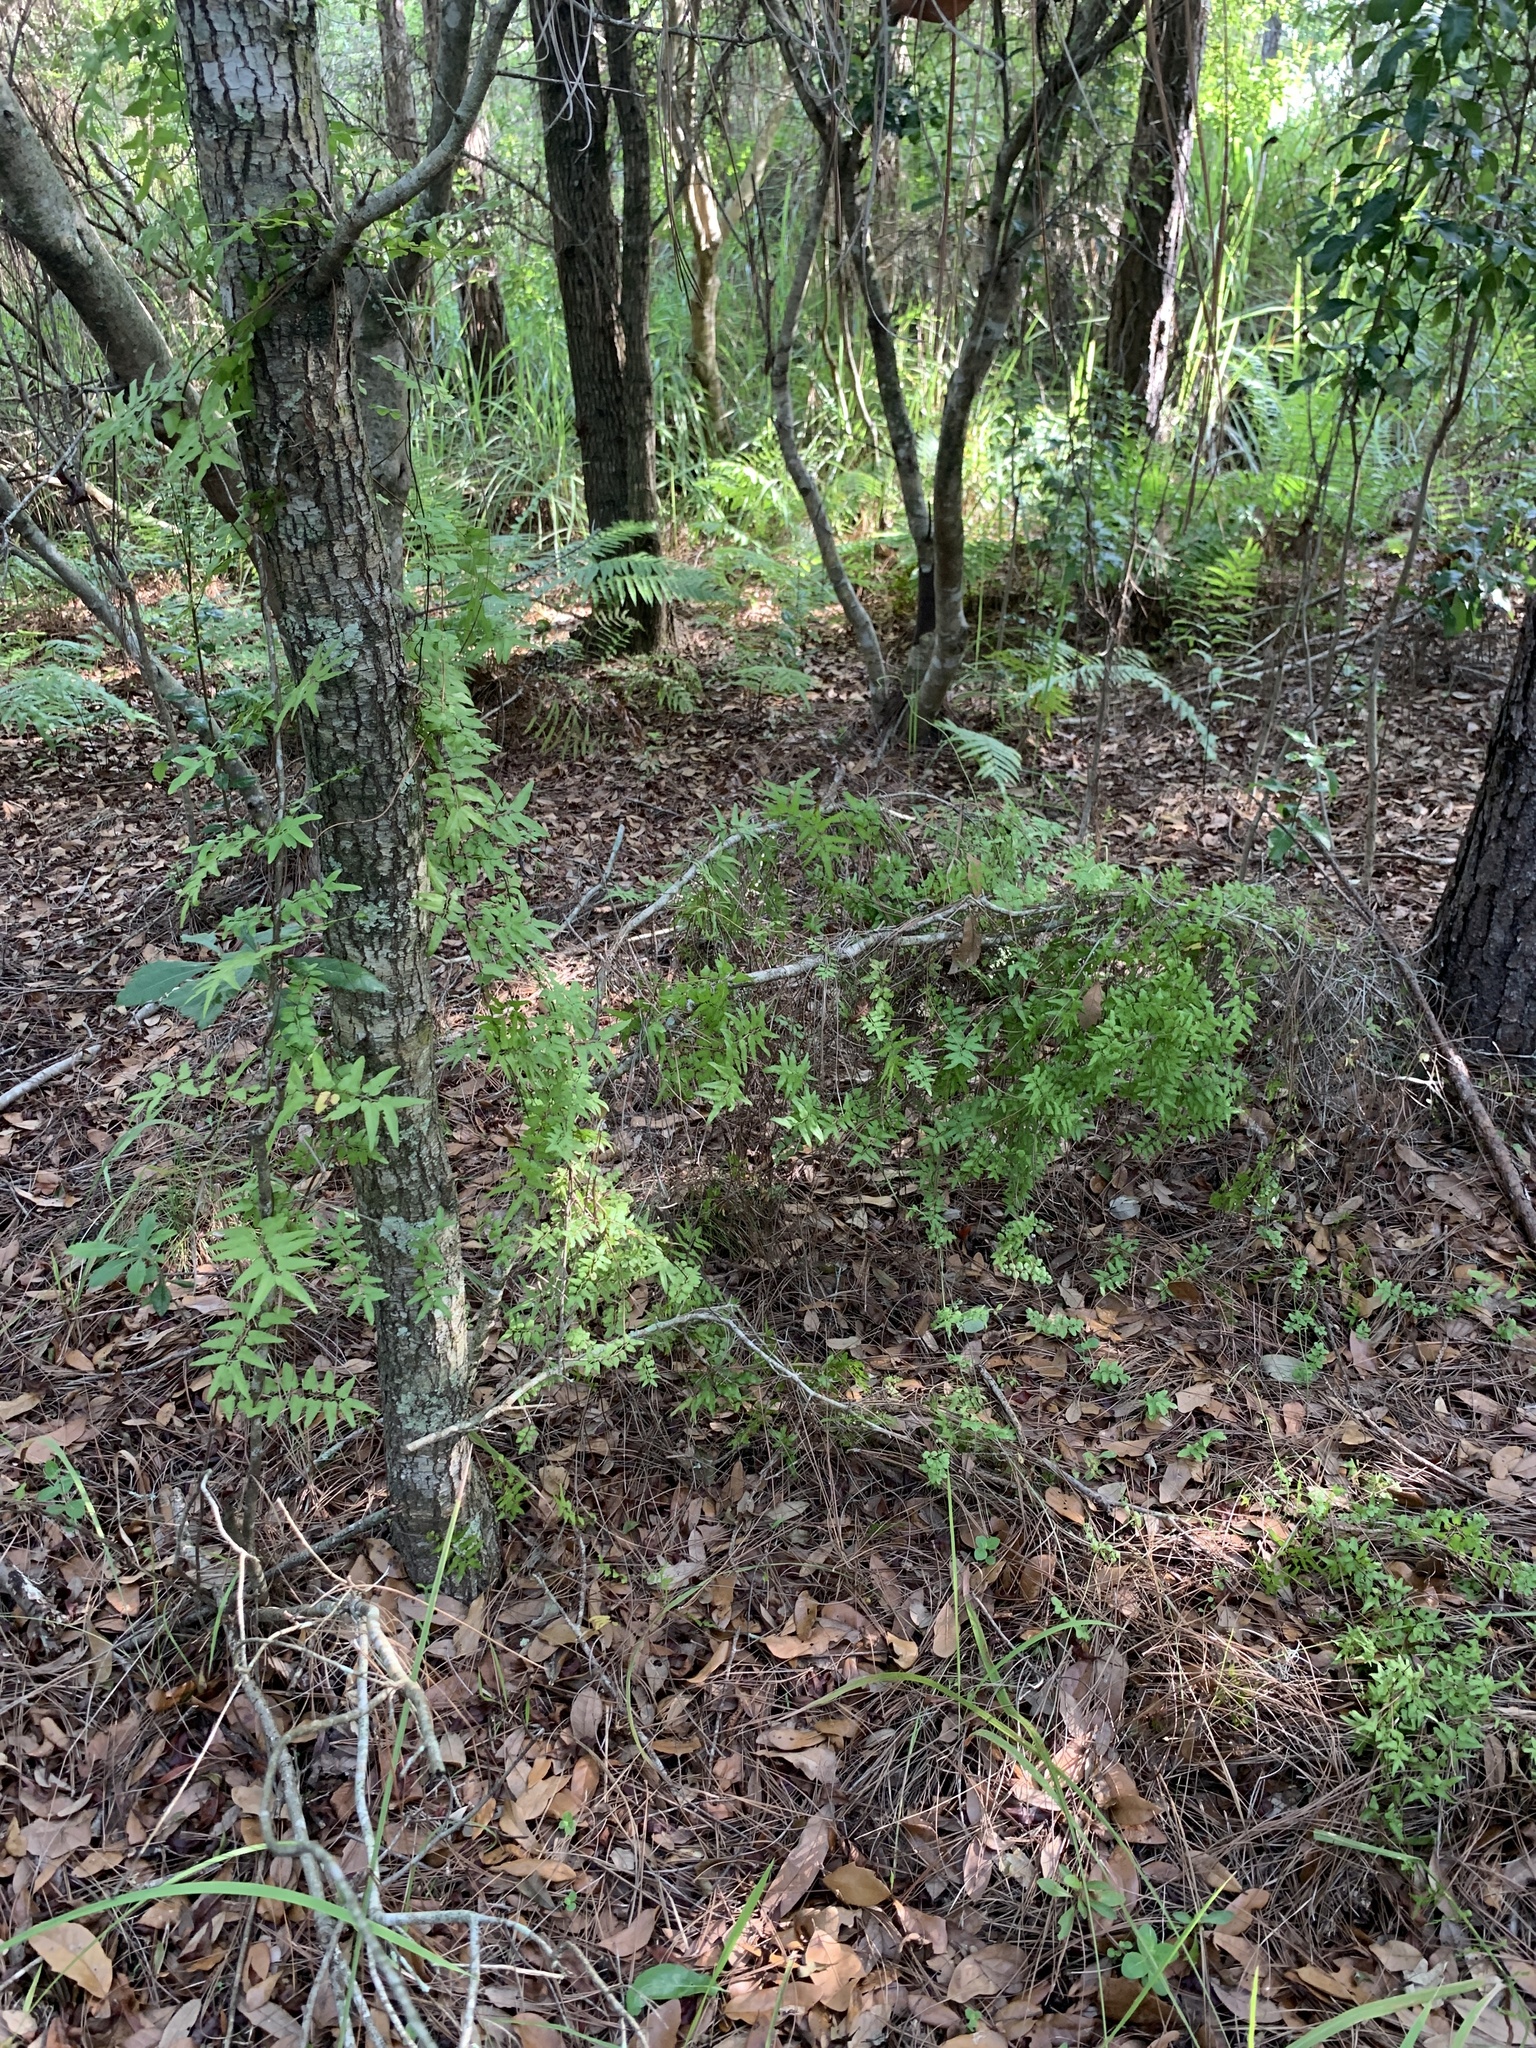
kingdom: Plantae
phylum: Tracheophyta
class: Polypodiopsida
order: Schizaeales
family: Lygodiaceae
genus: Lygodium
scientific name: Lygodium microphyllum
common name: Small-leaf climbing fern
